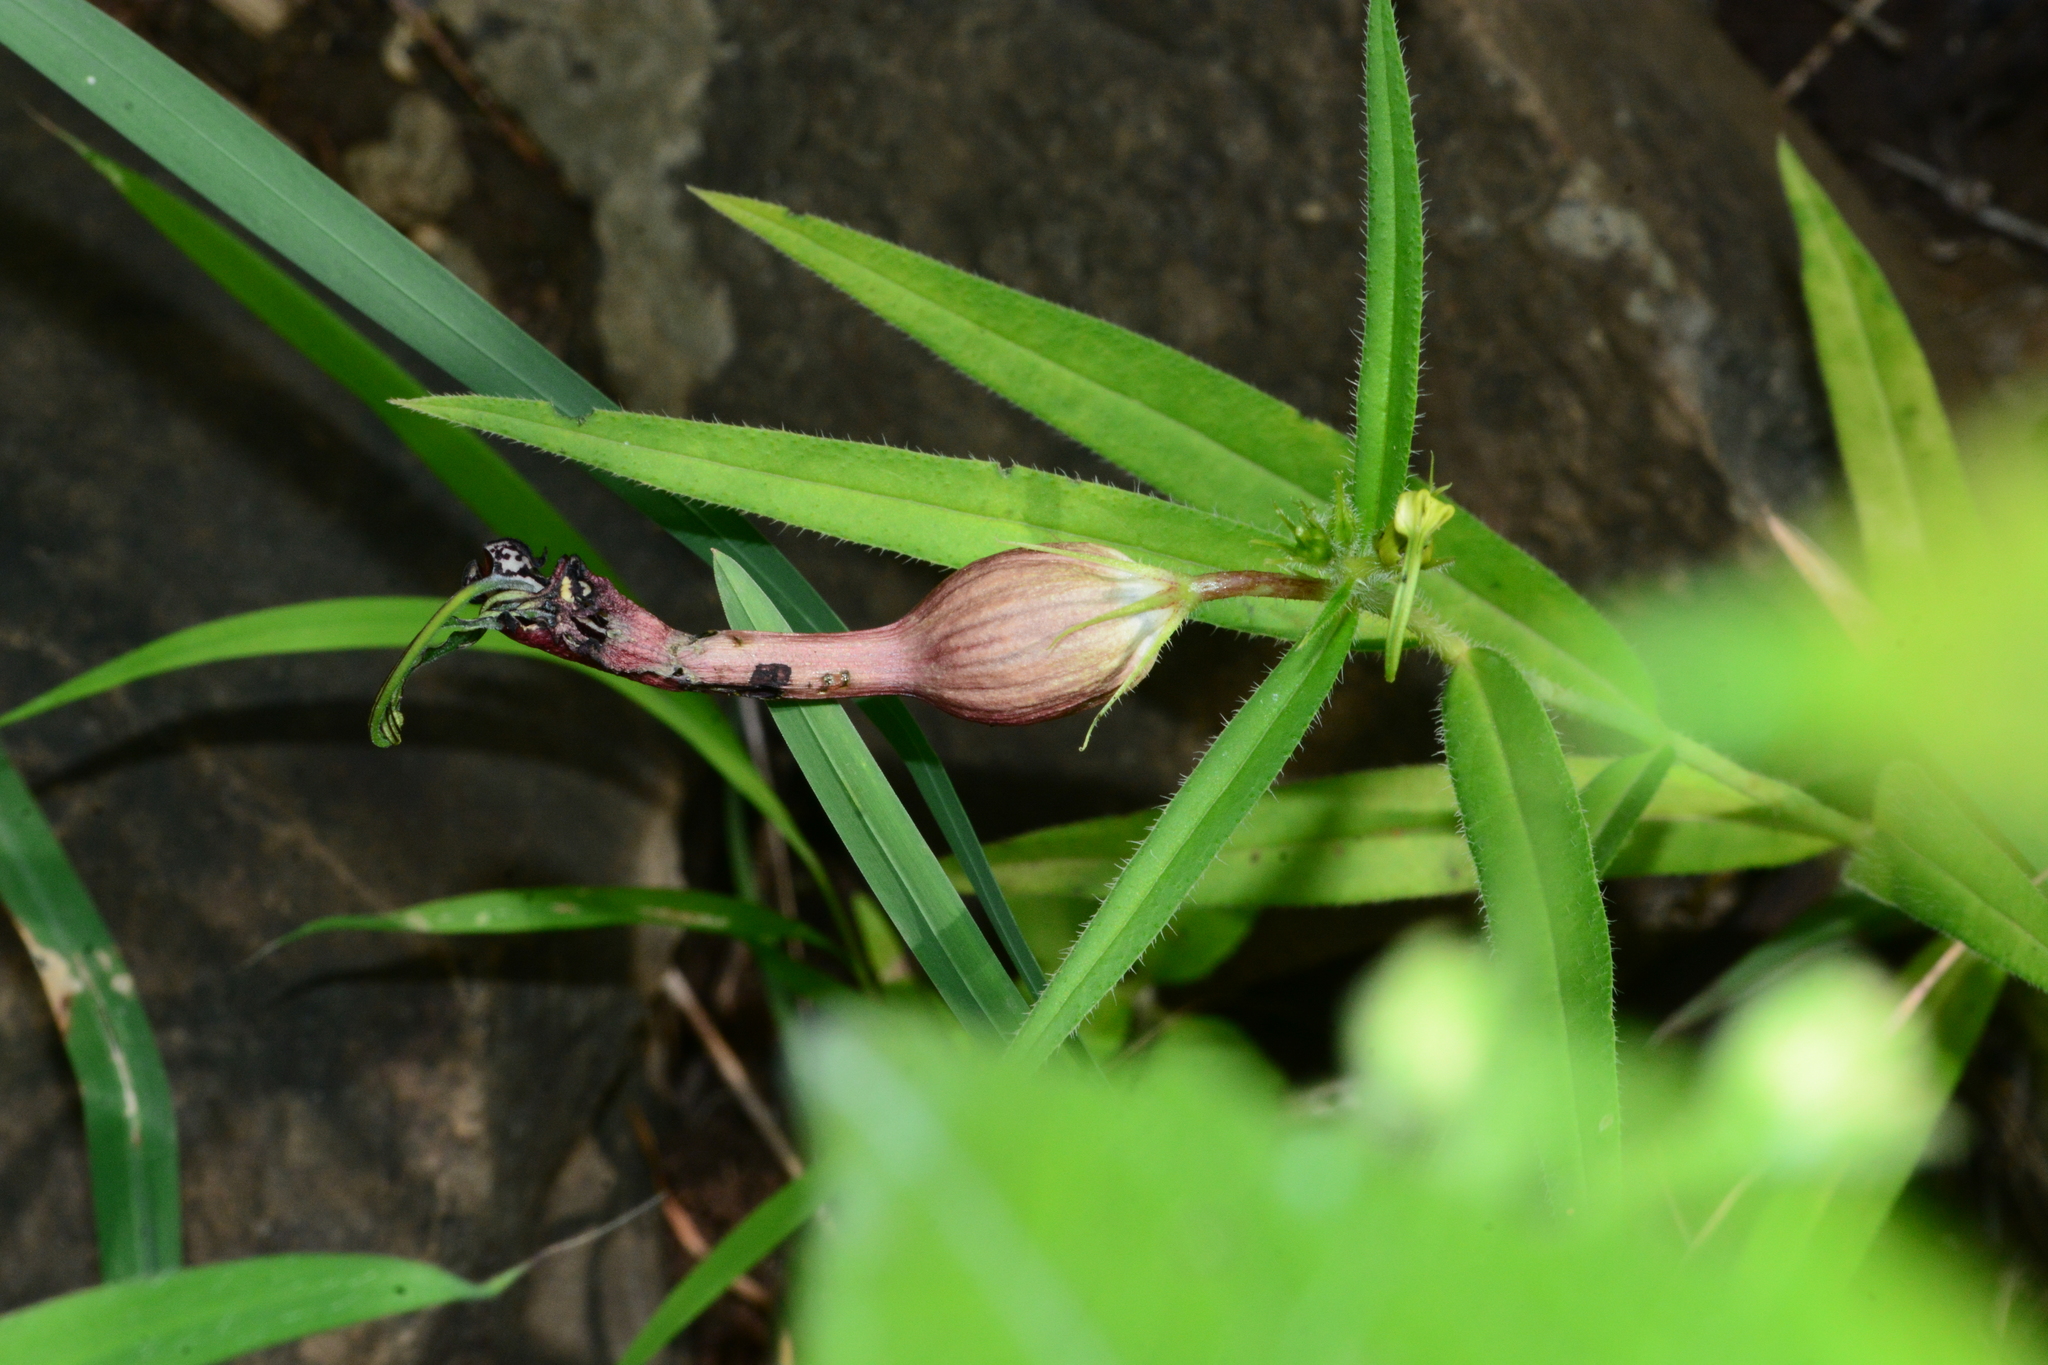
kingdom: Plantae
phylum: Tracheophyta
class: Magnoliopsida
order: Gentianales
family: Apocynaceae
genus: Ceropegia
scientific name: Ceropegia mahabalei
